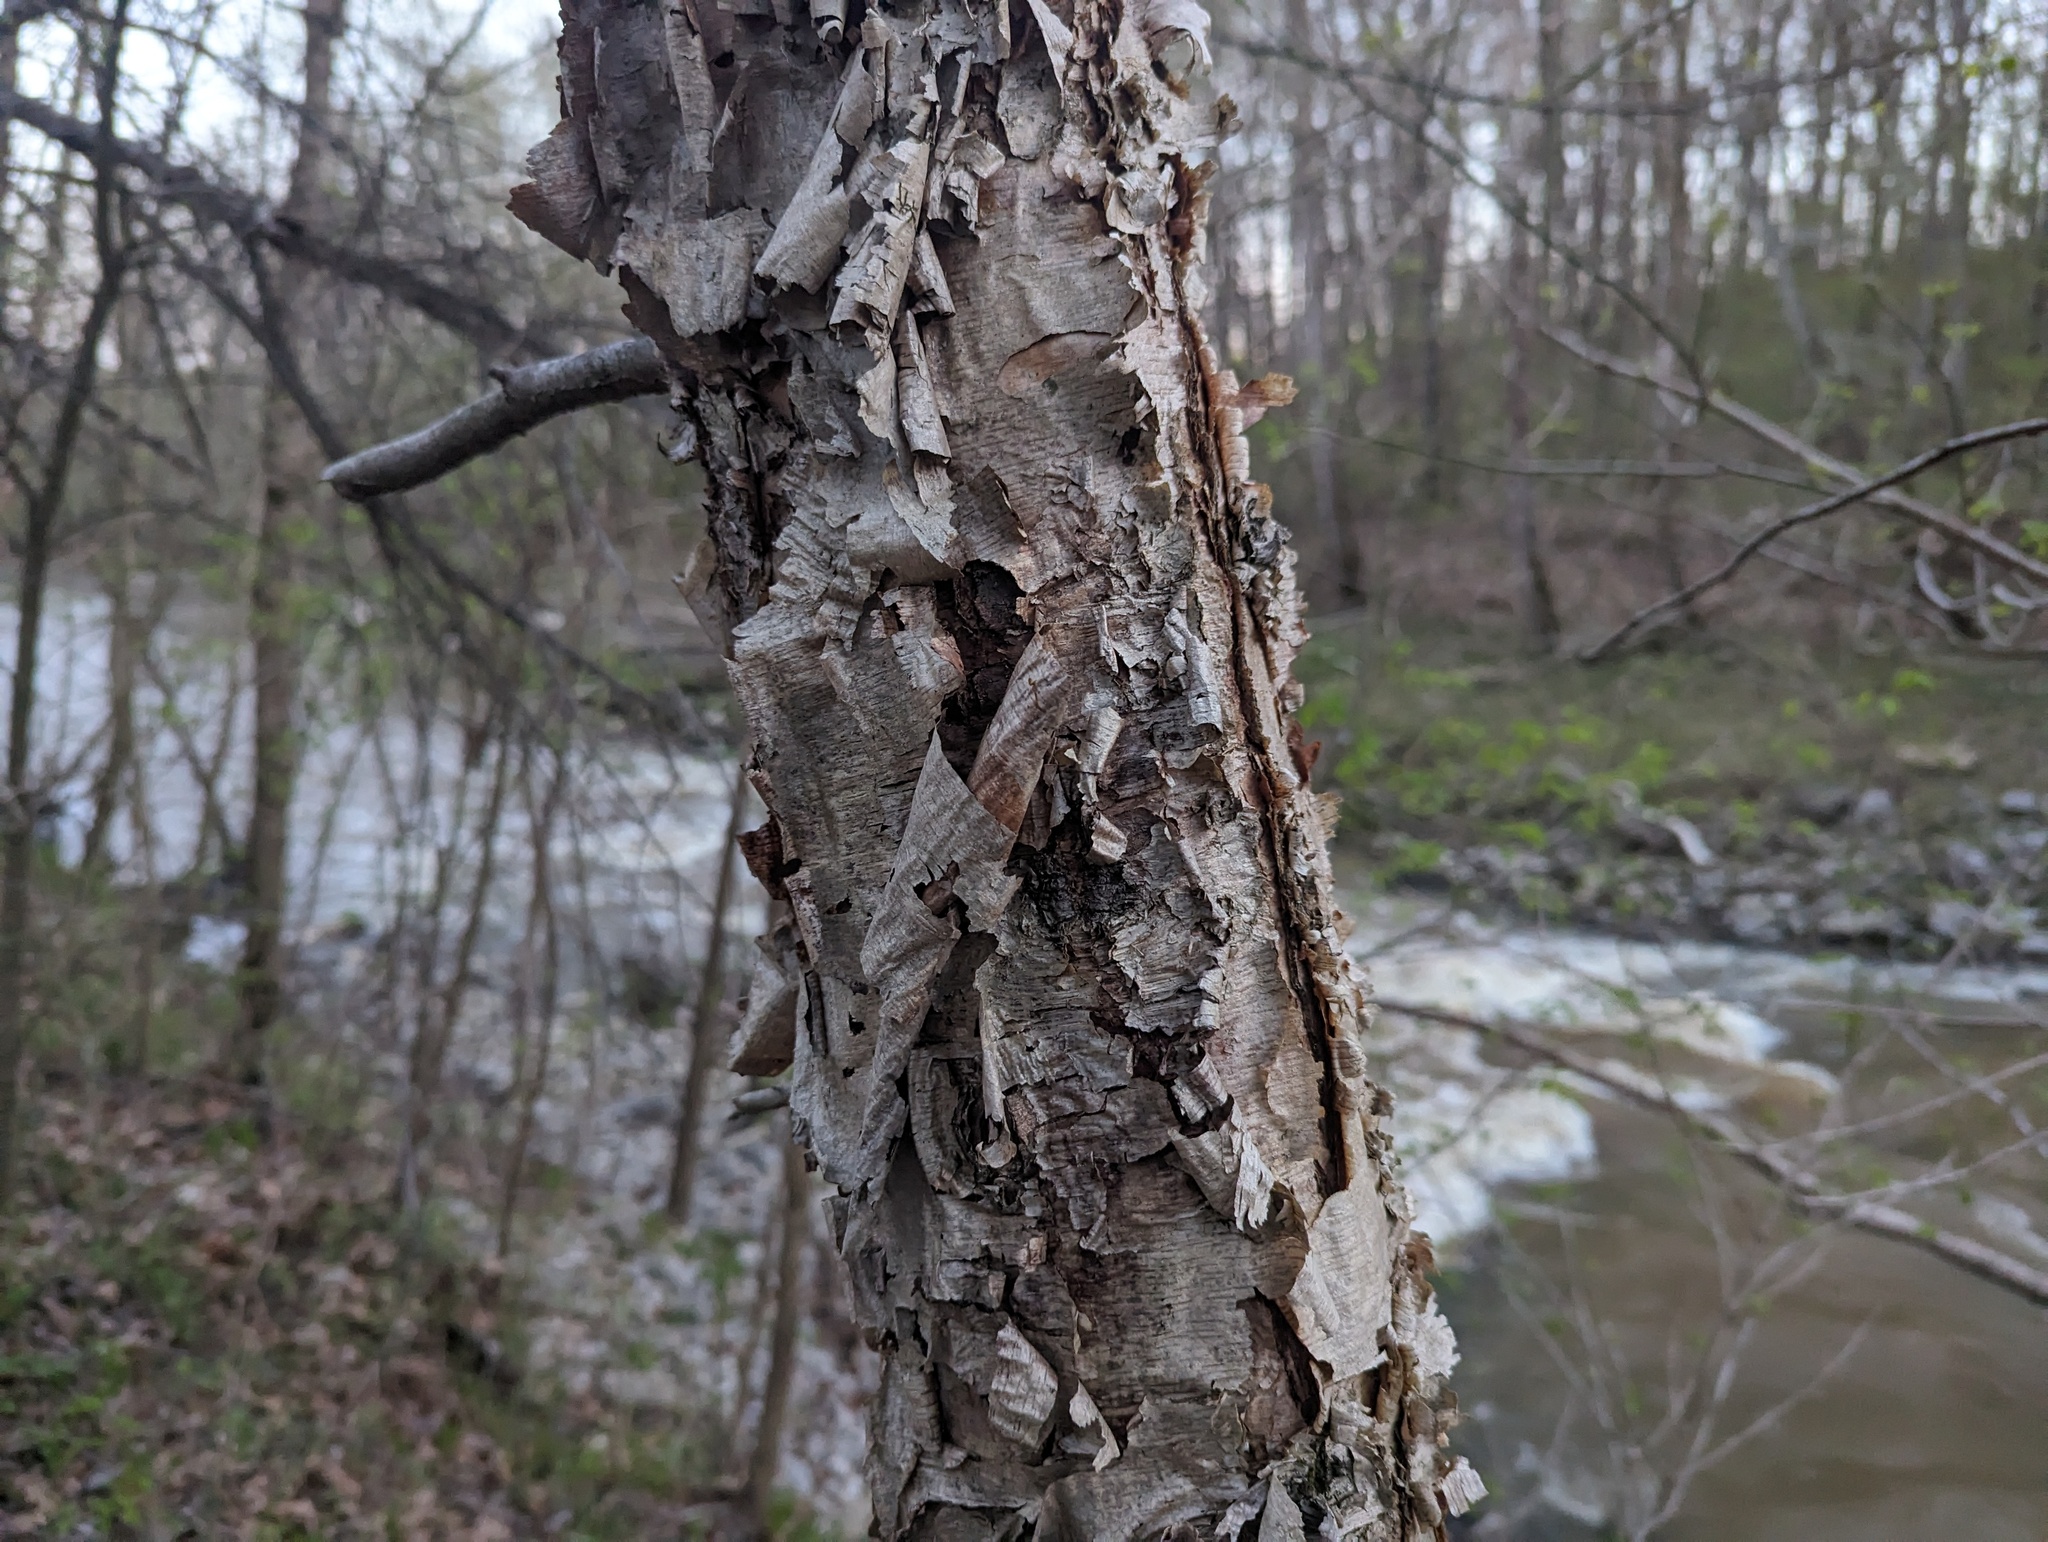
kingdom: Plantae
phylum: Tracheophyta
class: Magnoliopsida
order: Fagales
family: Betulaceae
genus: Betula
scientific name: Betula nigra
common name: Black birch
